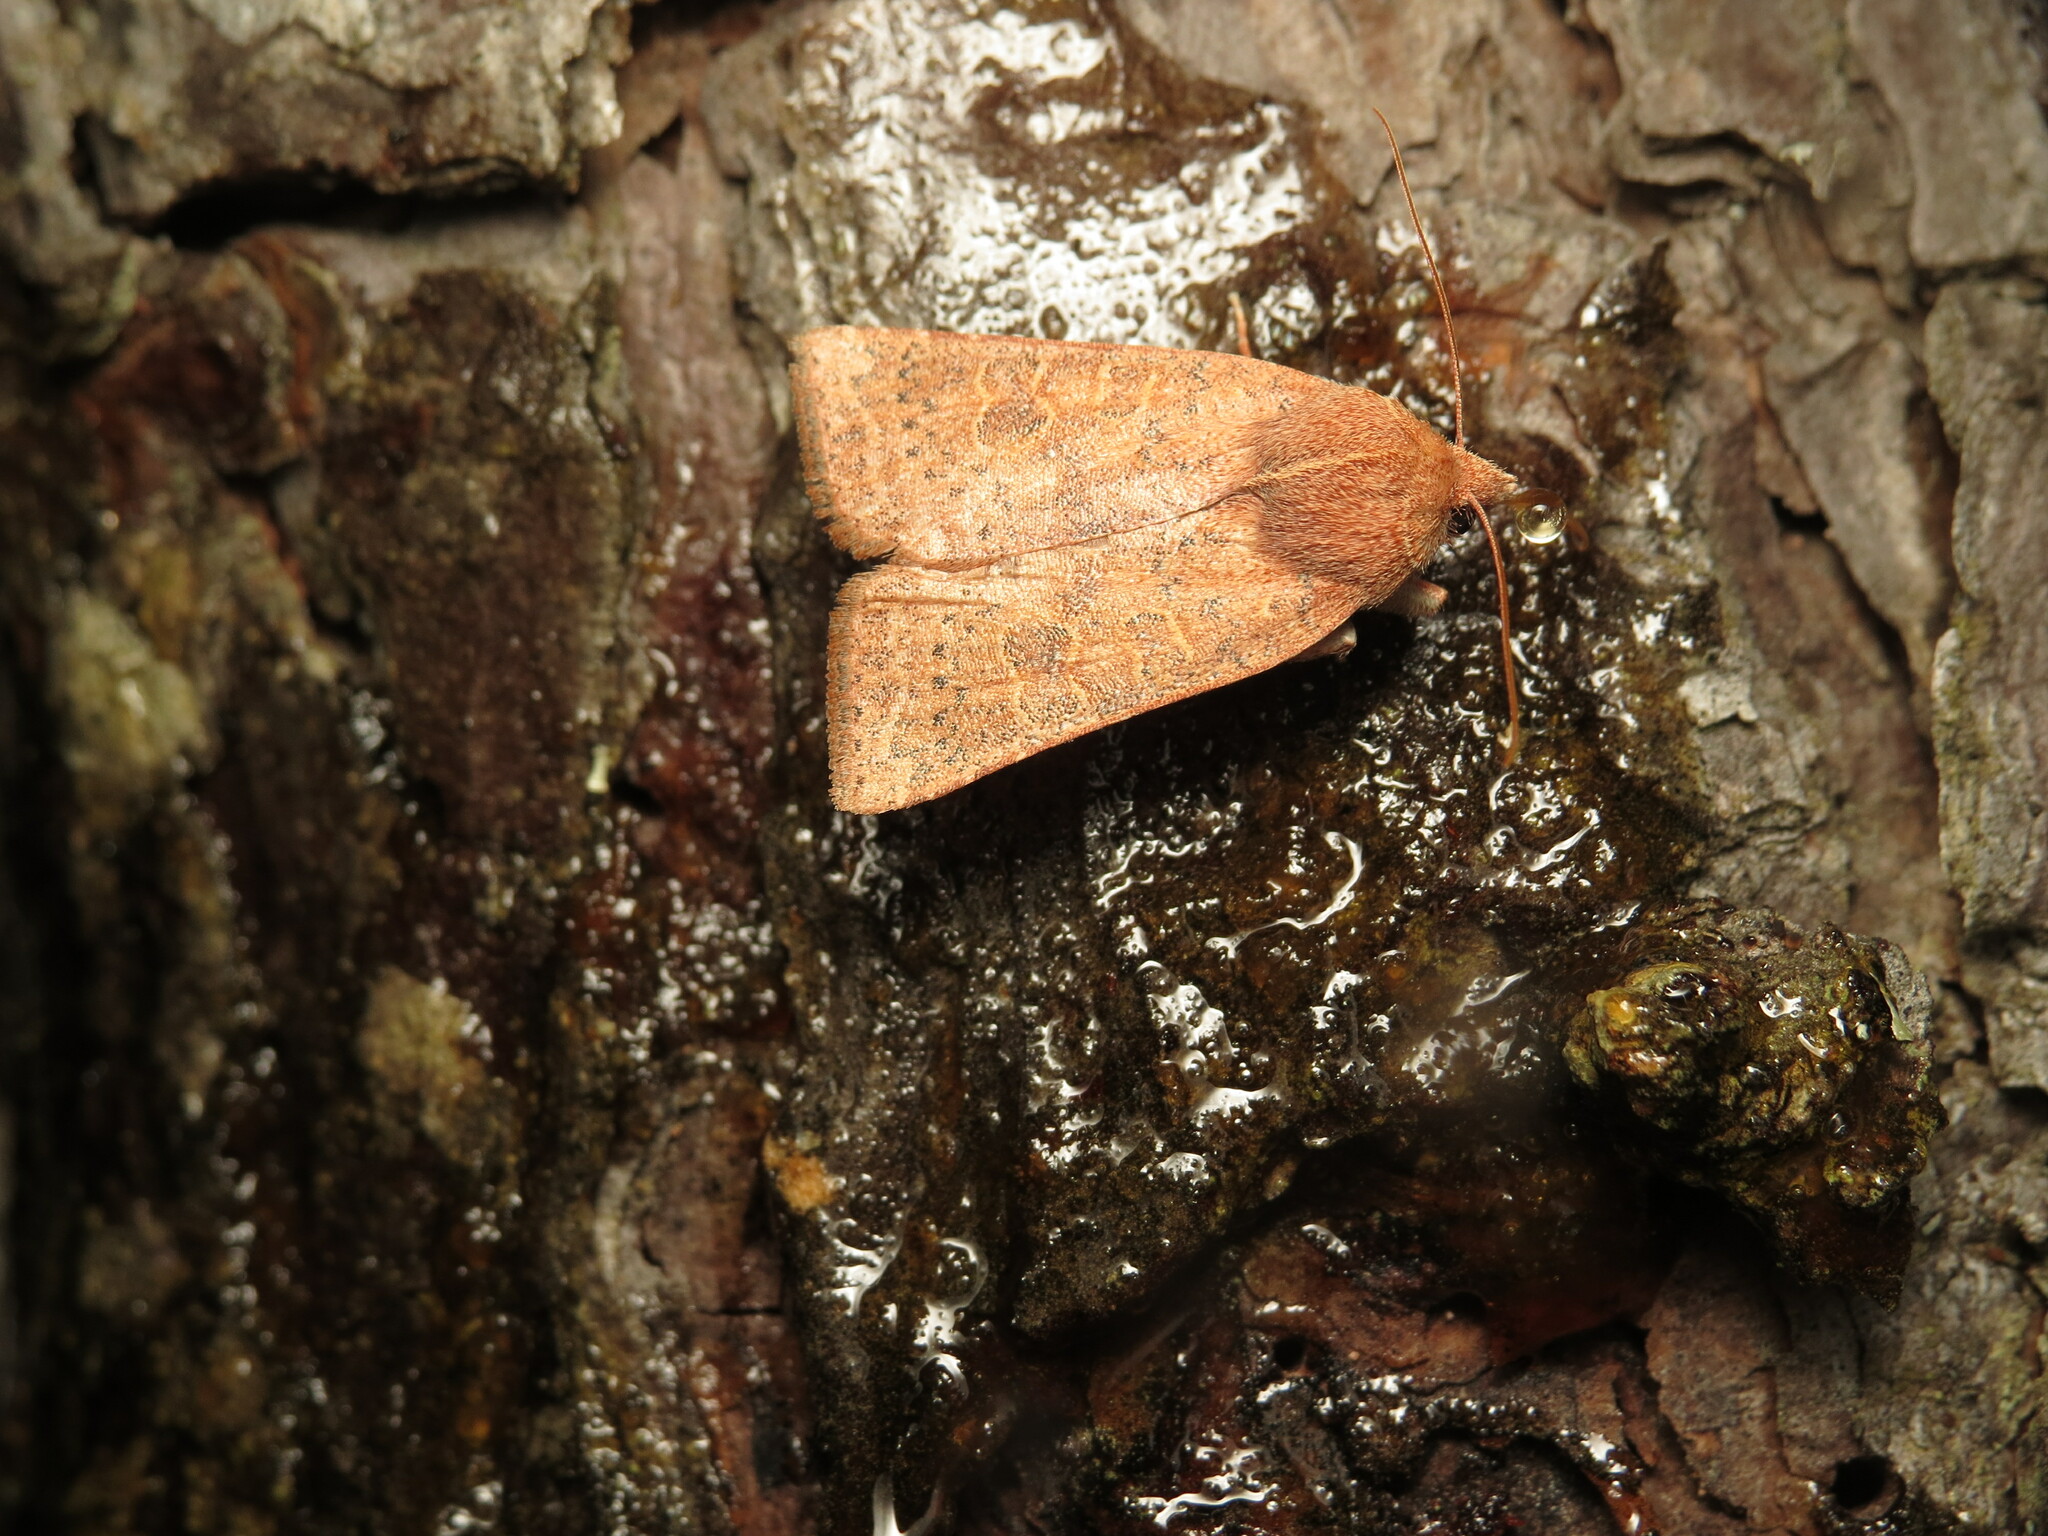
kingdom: Animalia
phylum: Arthropoda
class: Insecta
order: Lepidoptera
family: Noctuidae
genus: Xystopeplus
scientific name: Xystopeplus rufago
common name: Red-winged sallow
